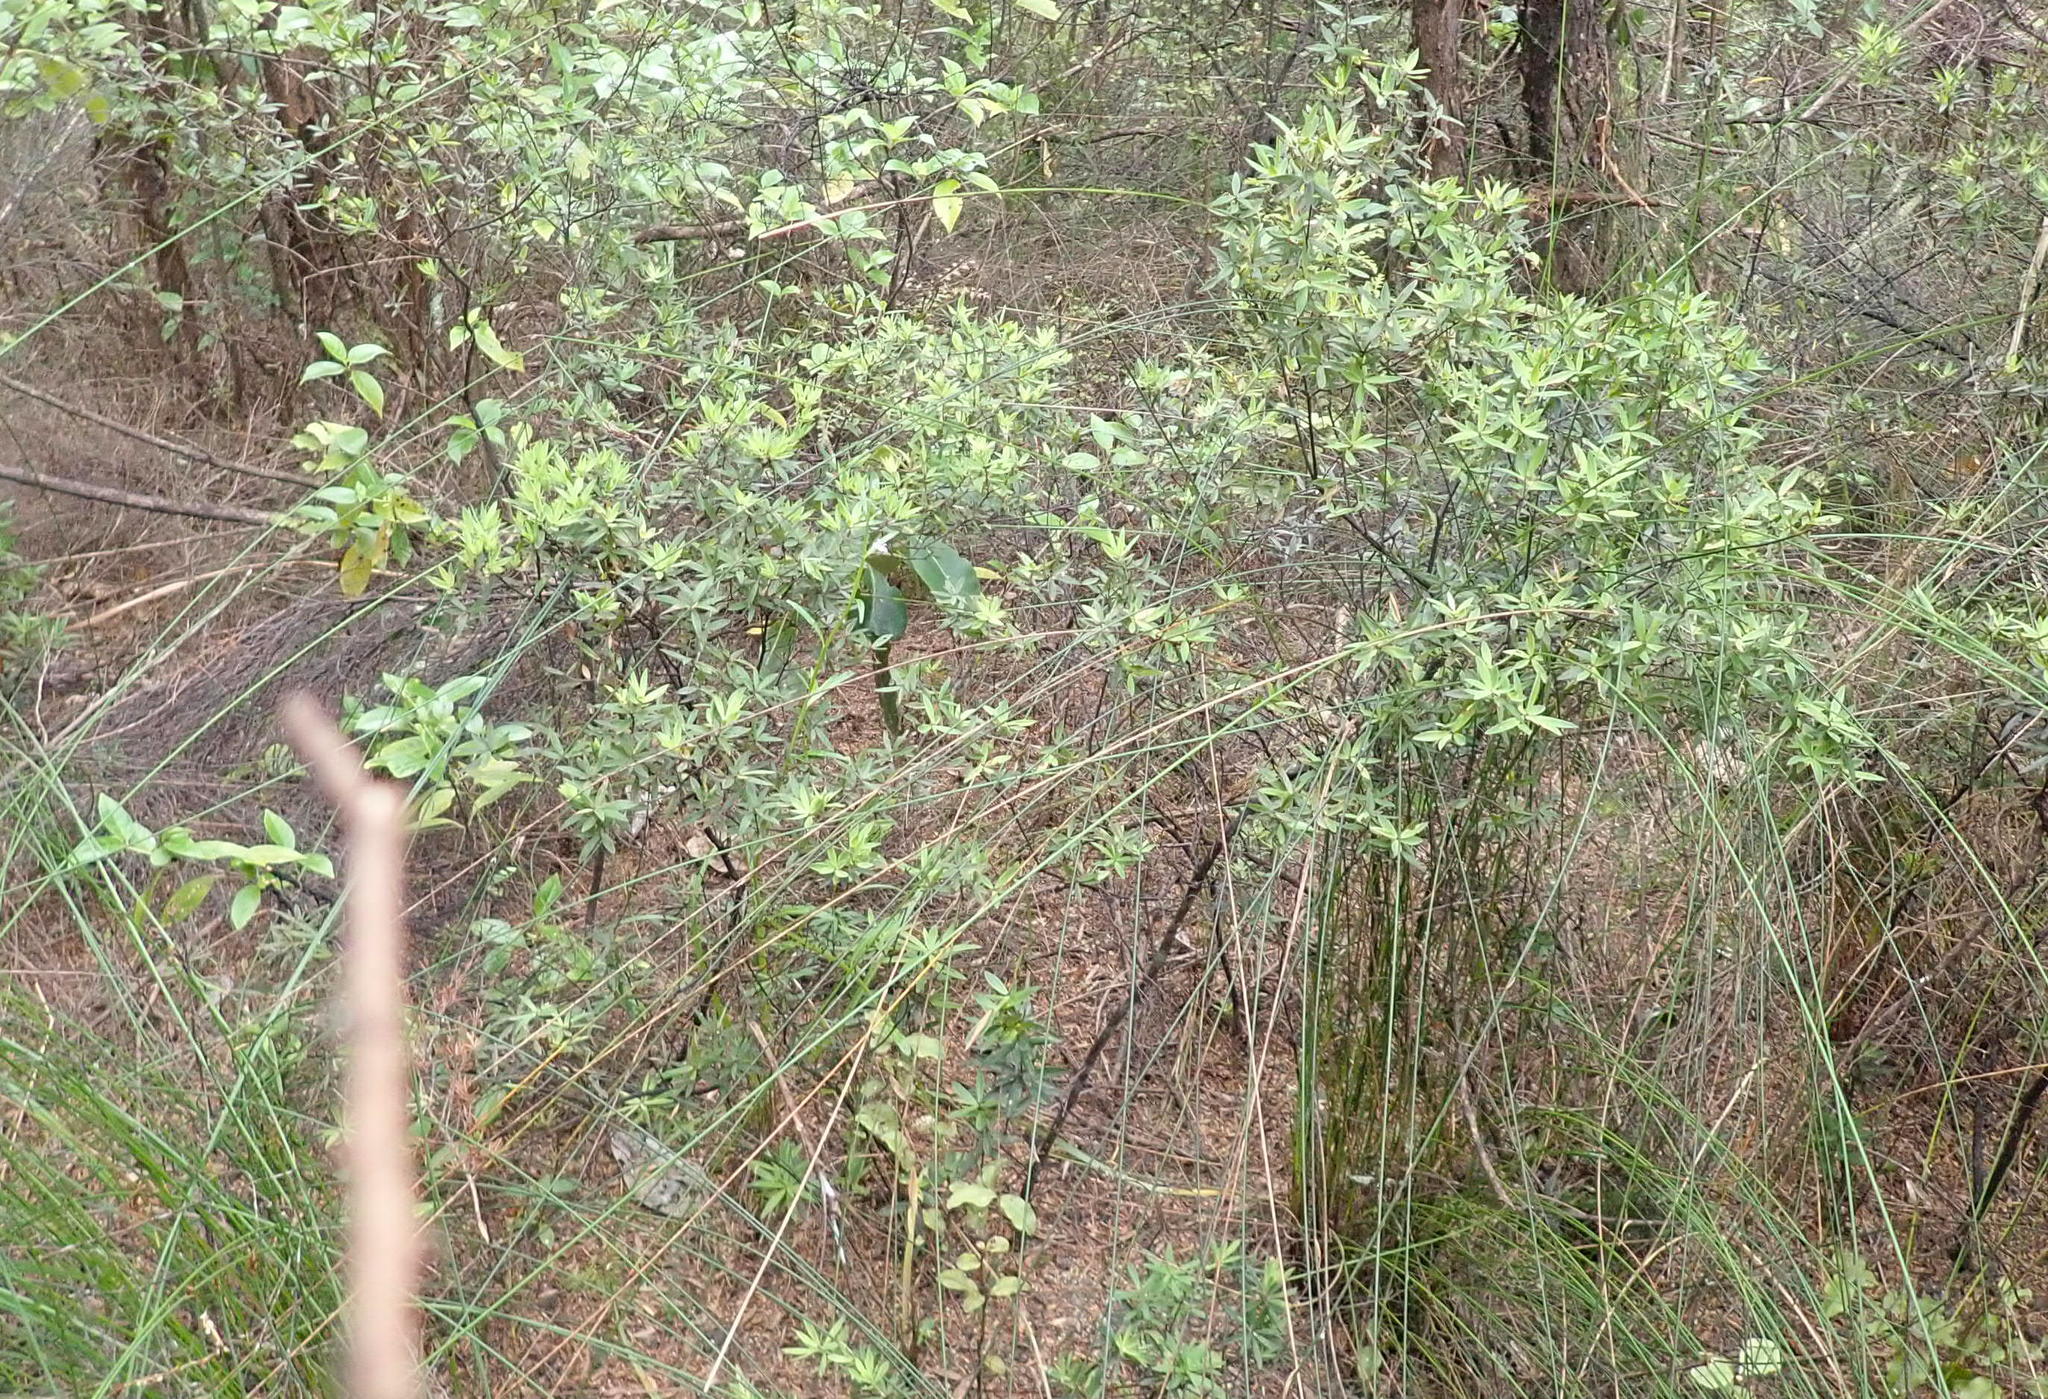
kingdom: Plantae
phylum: Tracheophyta
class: Magnoliopsida
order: Ericales
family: Ericaceae
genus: Leucopogon
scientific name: Leucopogon fasciculatus
